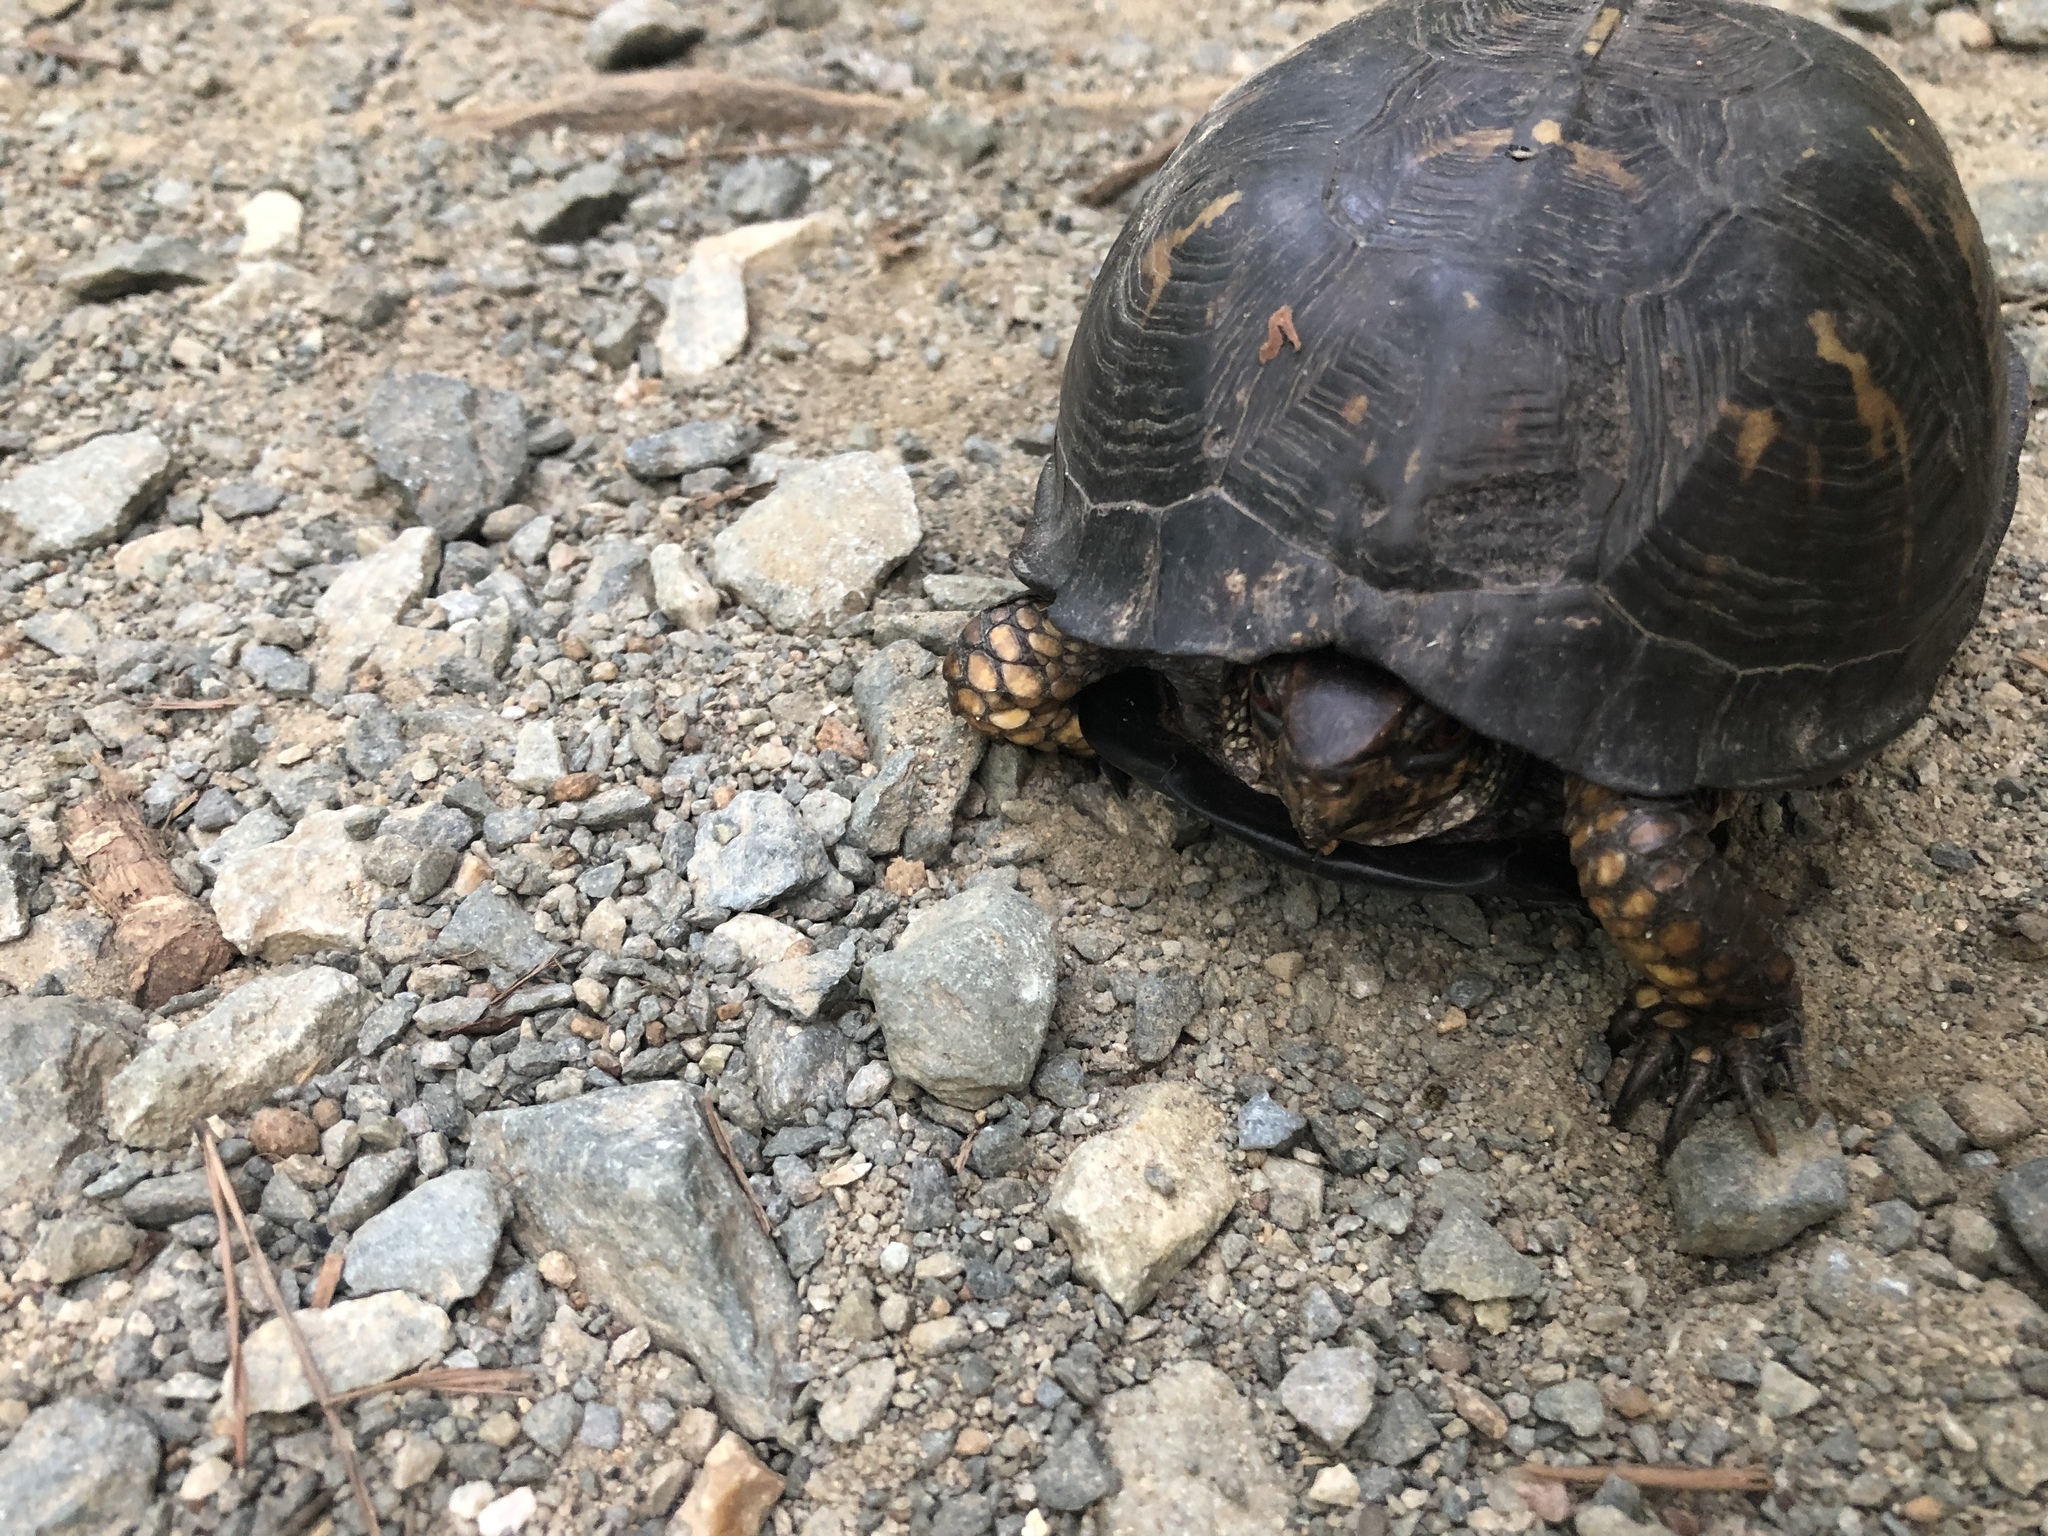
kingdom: Animalia
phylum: Chordata
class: Testudines
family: Emydidae
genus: Terrapene
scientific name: Terrapene carolina
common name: Common box turtle
